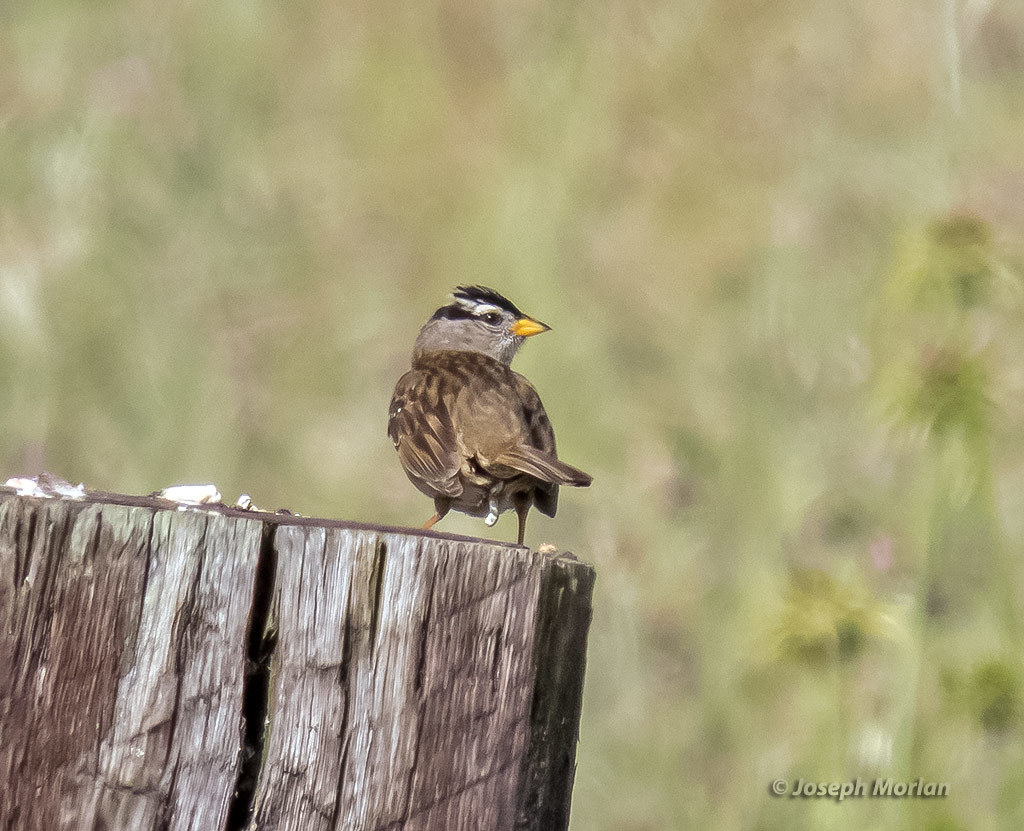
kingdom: Animalia
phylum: Chordata
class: Aves
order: Passeriformes
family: Passerellidae
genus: Zonotrichia
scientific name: Zonotrichia leucophrys
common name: White-crowned sparrow
